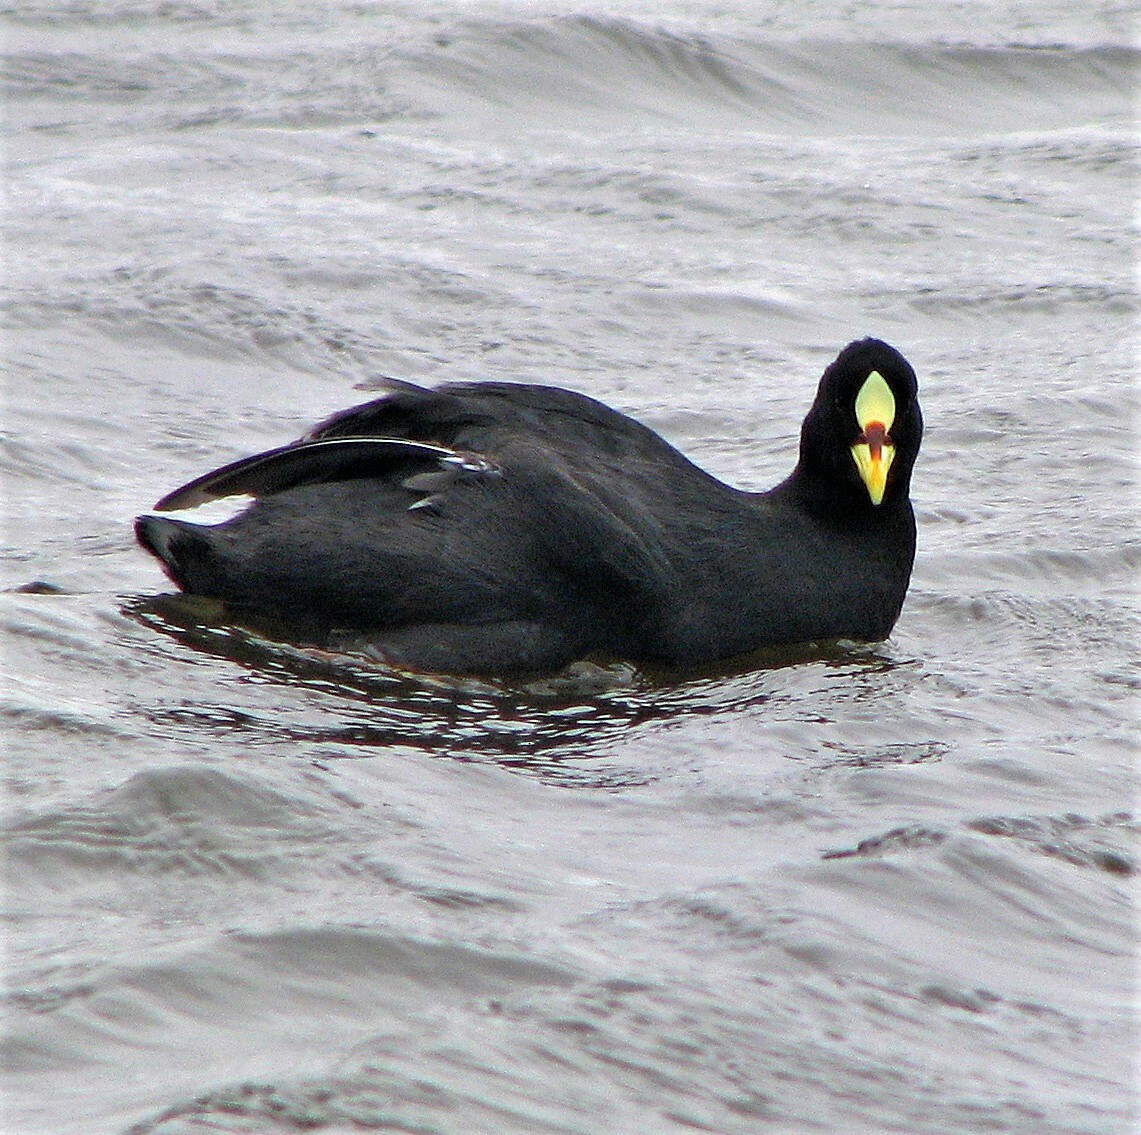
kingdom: Animalia
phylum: Chordata
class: Aves
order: Gruiformes
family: Rallidae
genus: Fulica
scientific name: Fulica armillata
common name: Red-gartered coot
